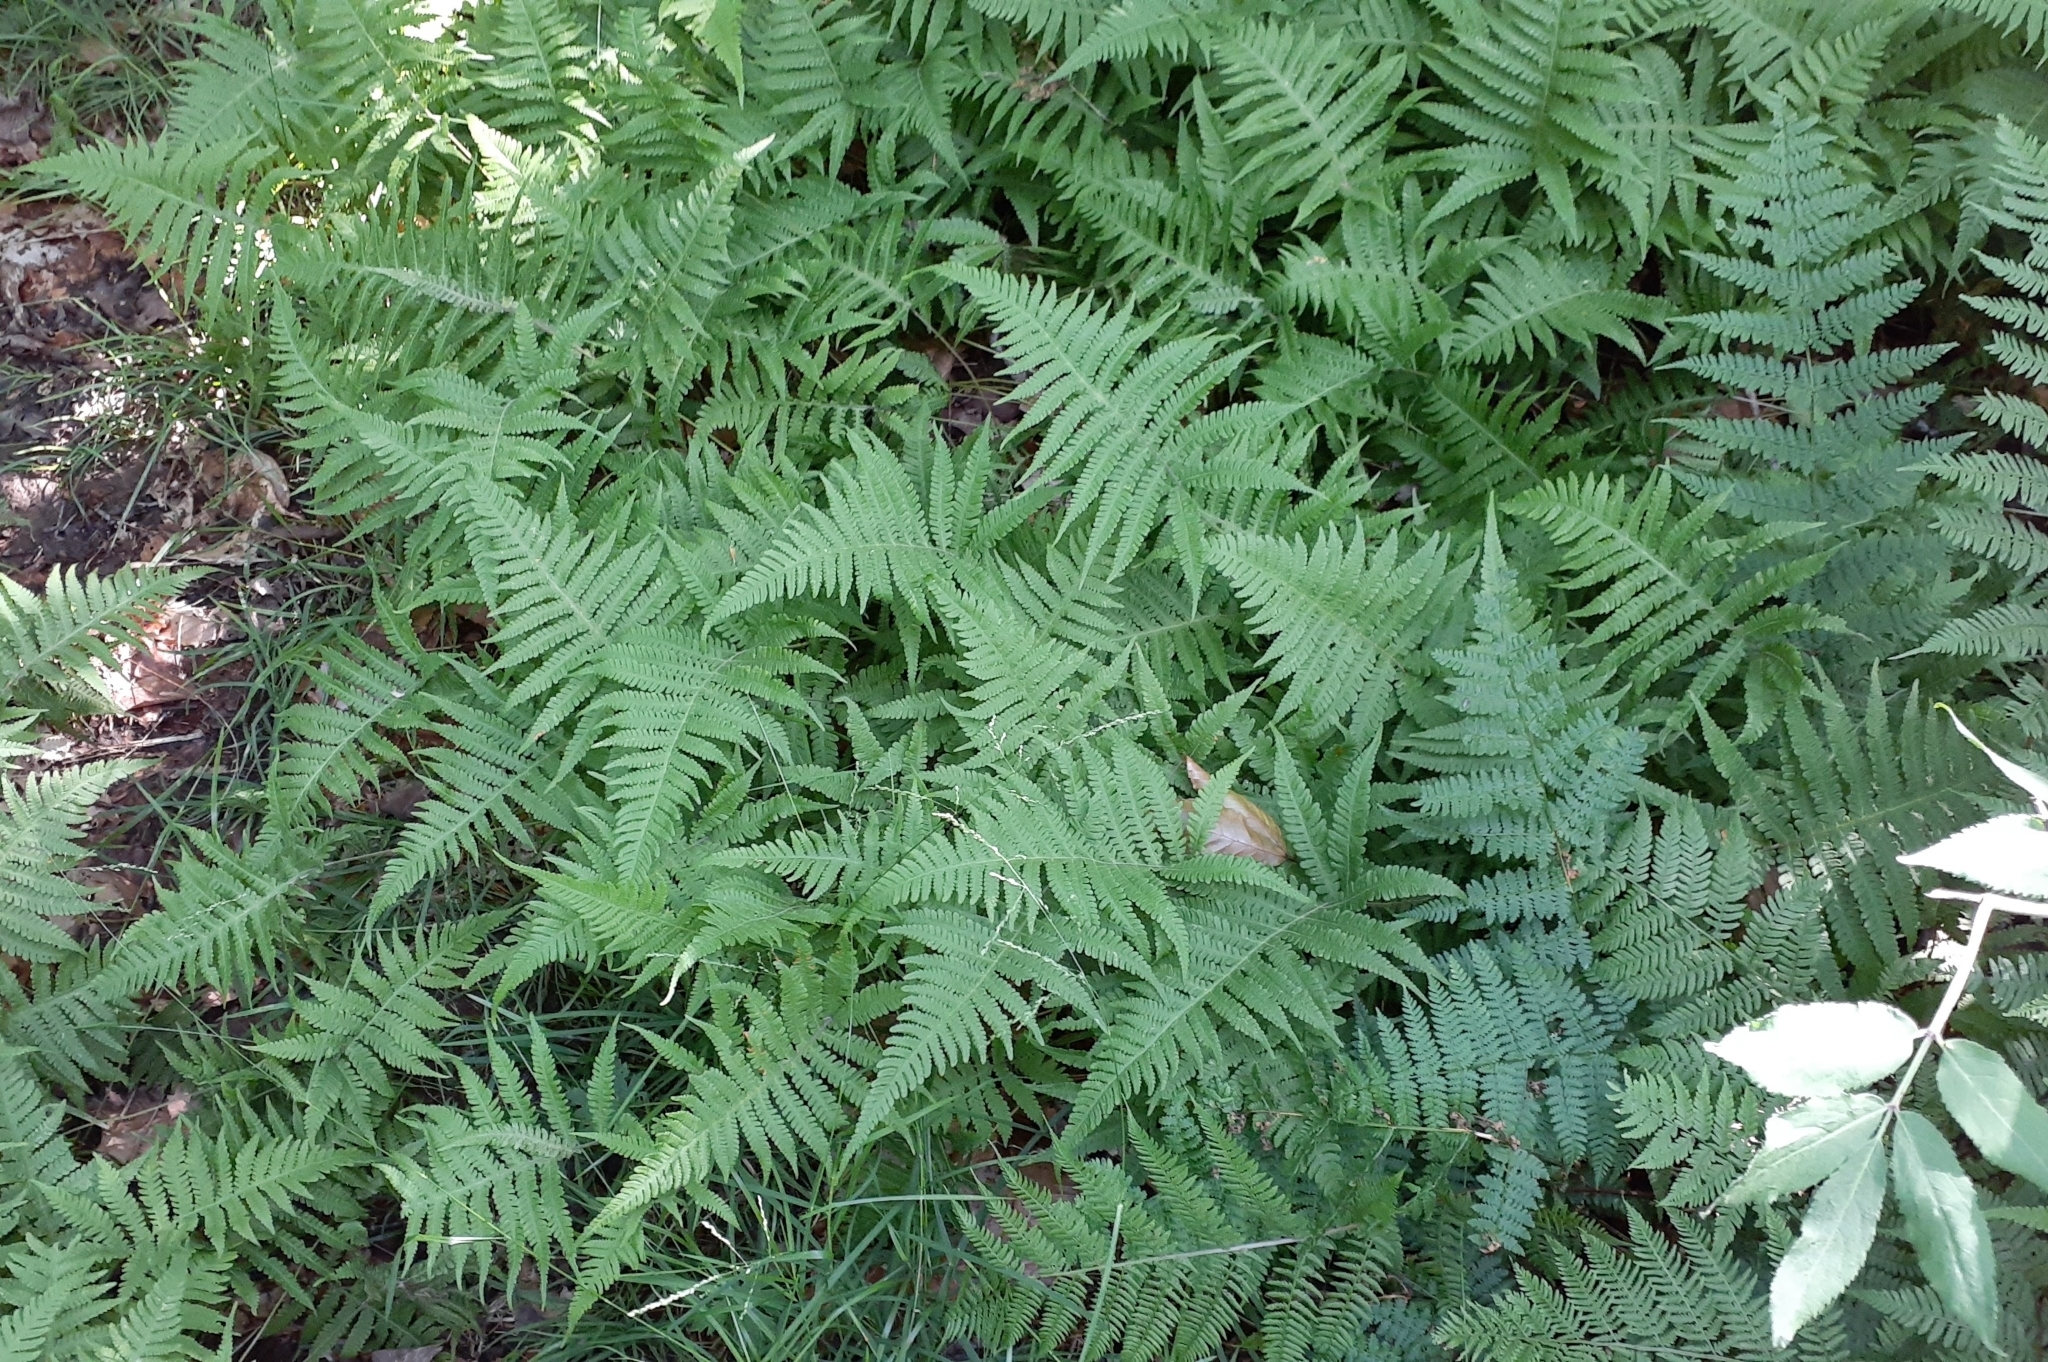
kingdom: Plantae
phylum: Tracheophyta
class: Polypodiopsida
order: Polypodiales
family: Thelypteridaceae
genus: Phegopteris
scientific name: Phegopteris connectilis
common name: Beech fern
